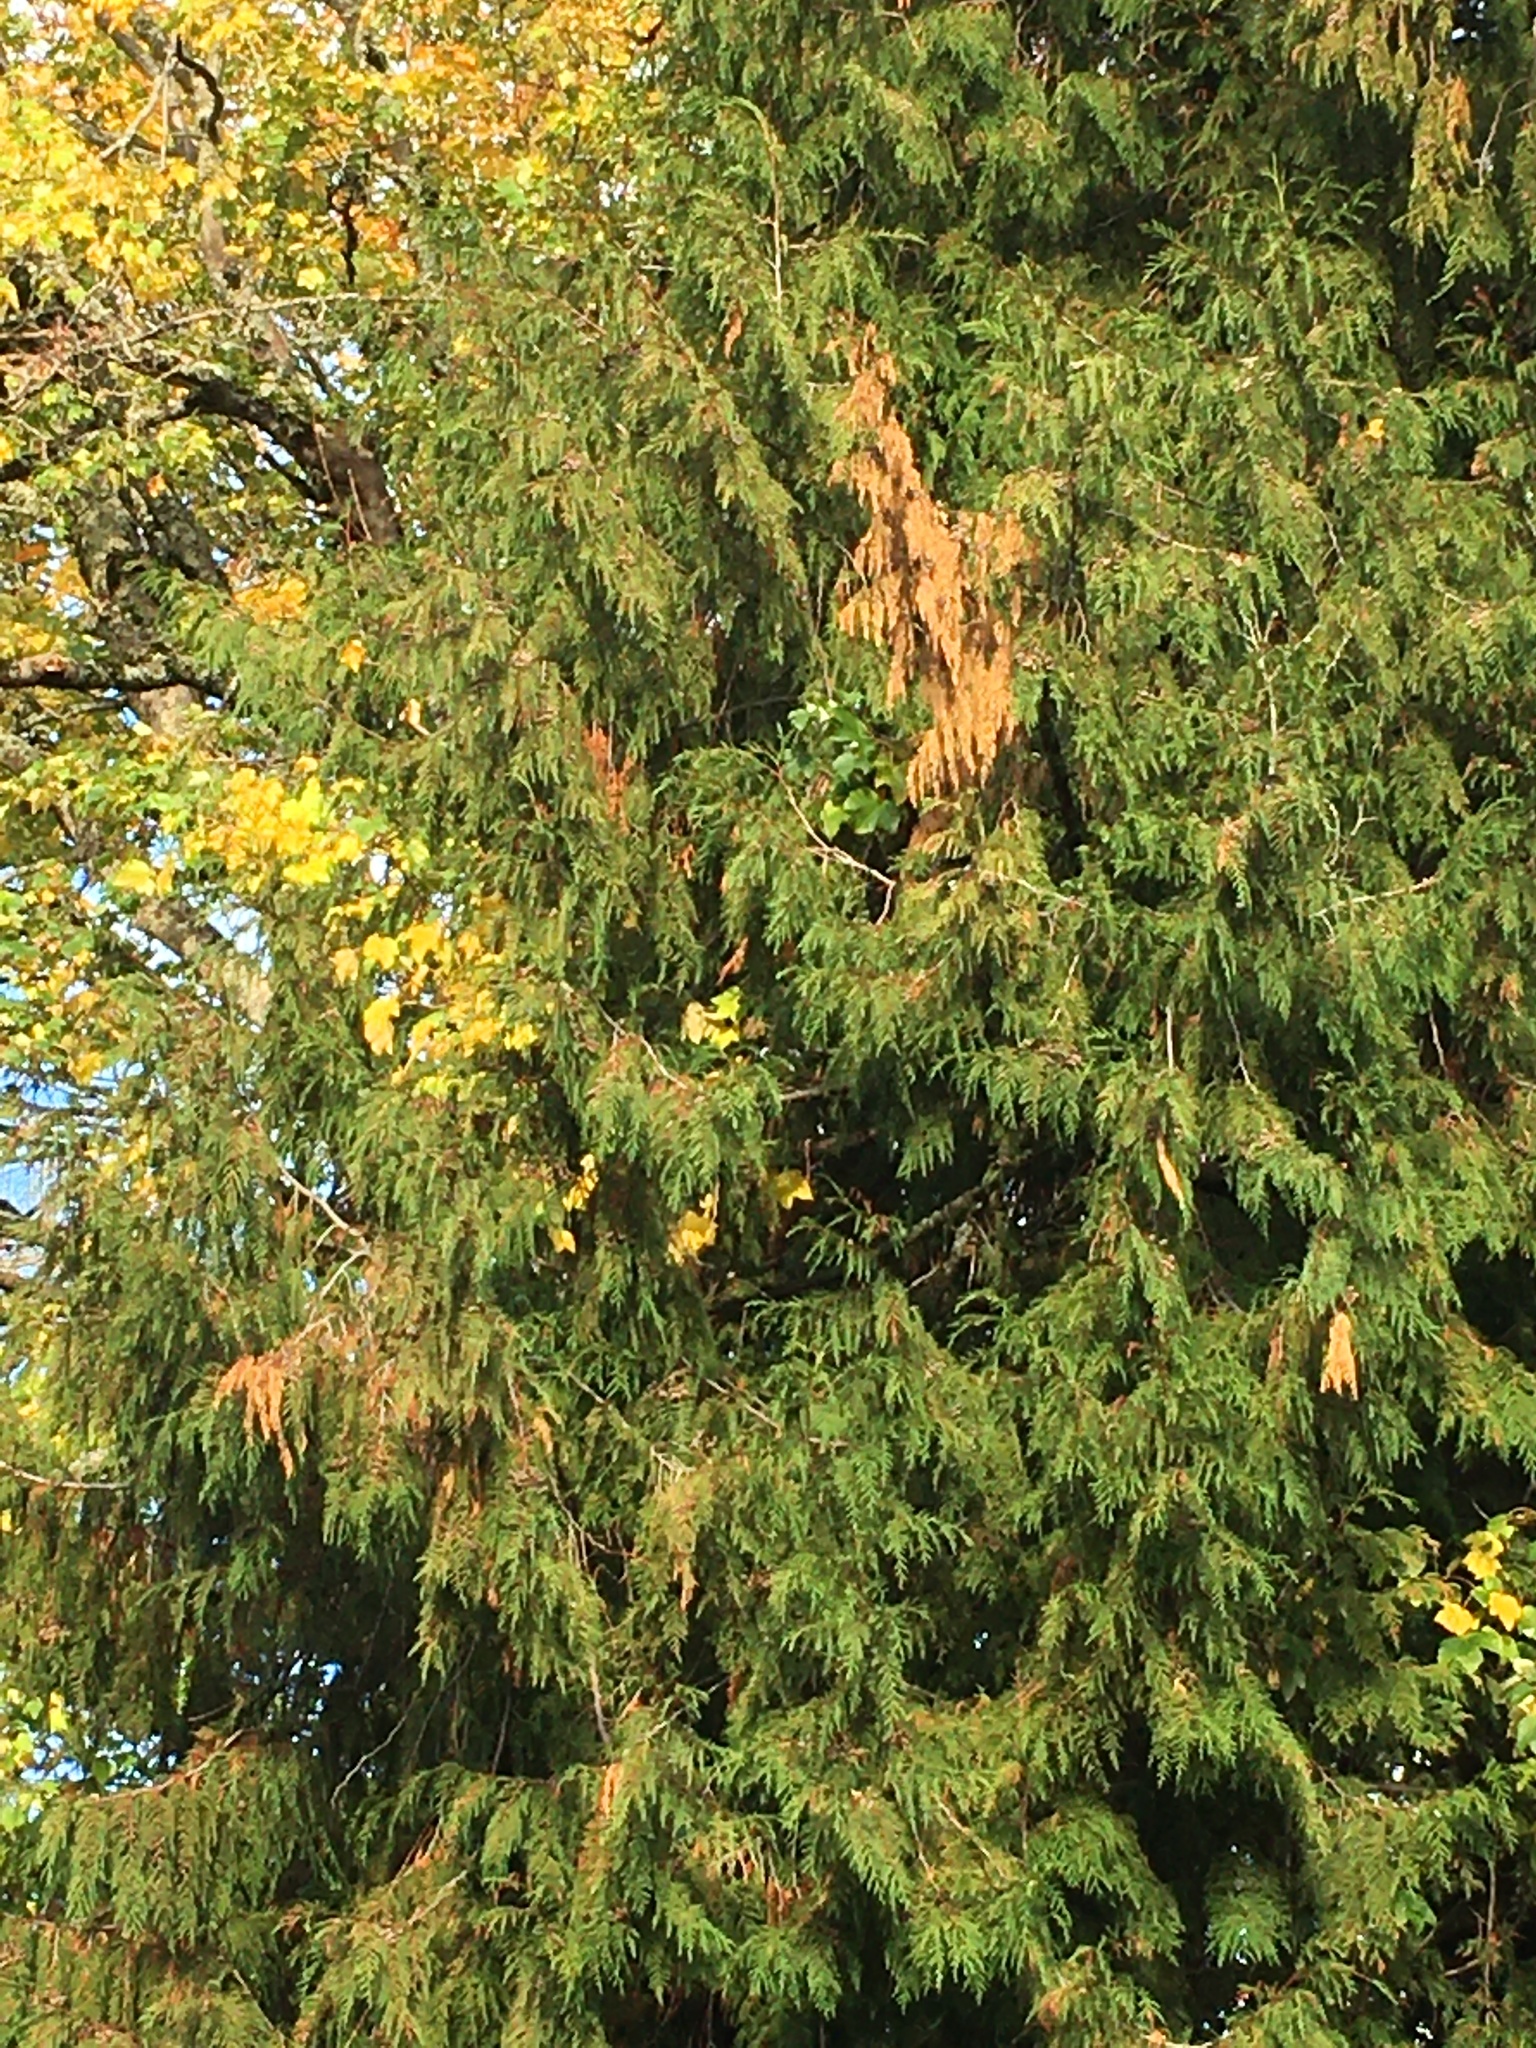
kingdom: Plantae
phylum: Tracheophyta
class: Pinopsida
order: Pinales
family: Cupressaceae
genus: Thuja
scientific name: Thuja plicata
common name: Western red-cedar
